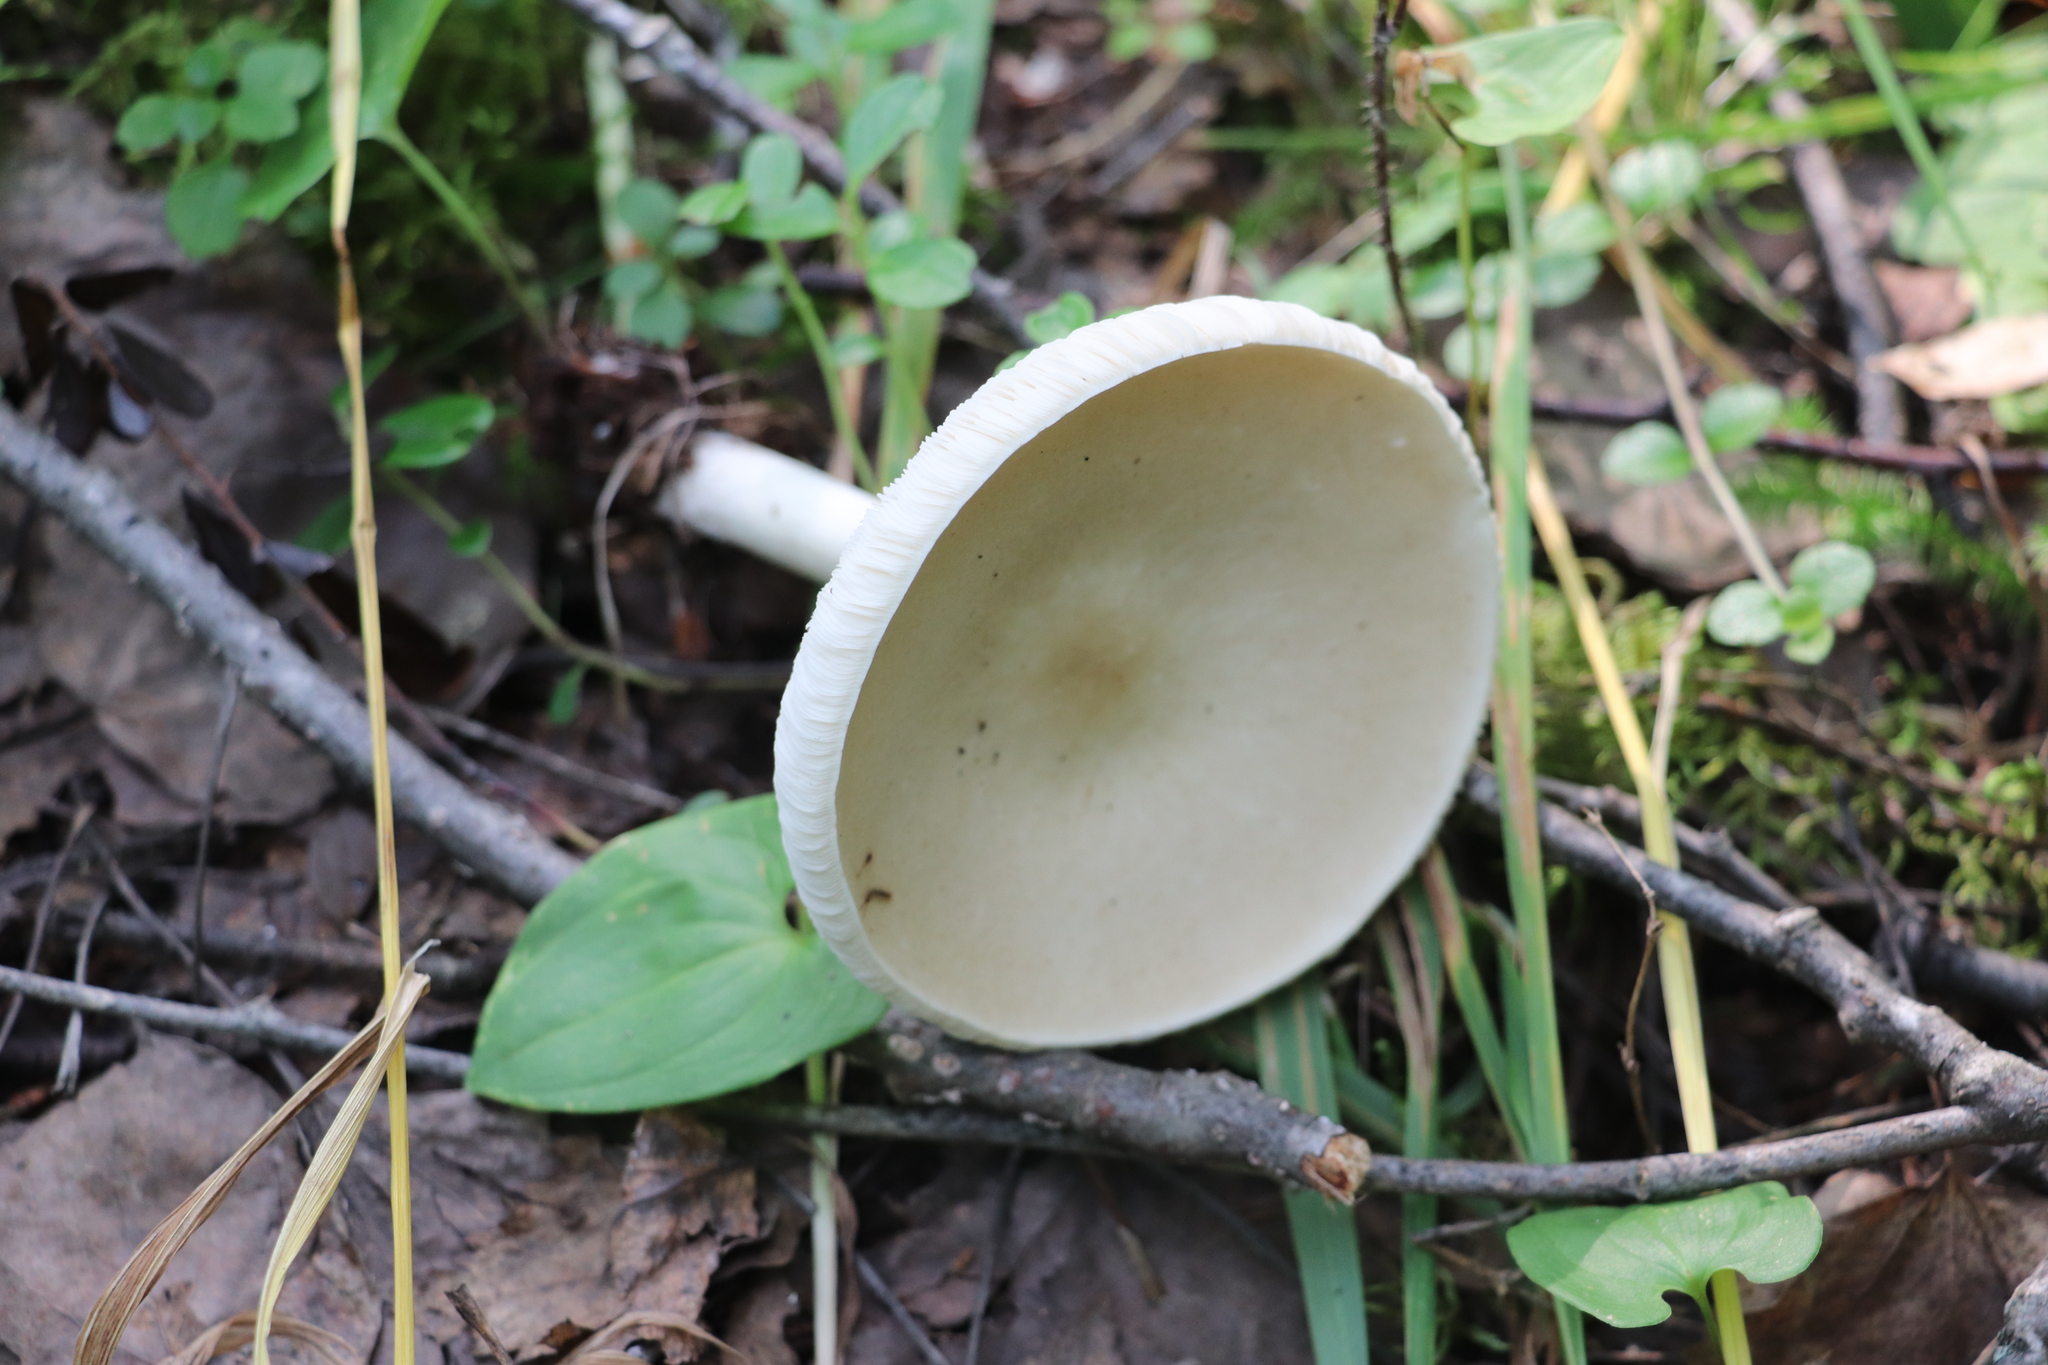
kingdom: Fungi
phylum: Basidiomycota
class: Agaricomycetes
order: Agaricales
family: Tricholomataceae
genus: Melanoleuca
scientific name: Melanoleuca strictipes
